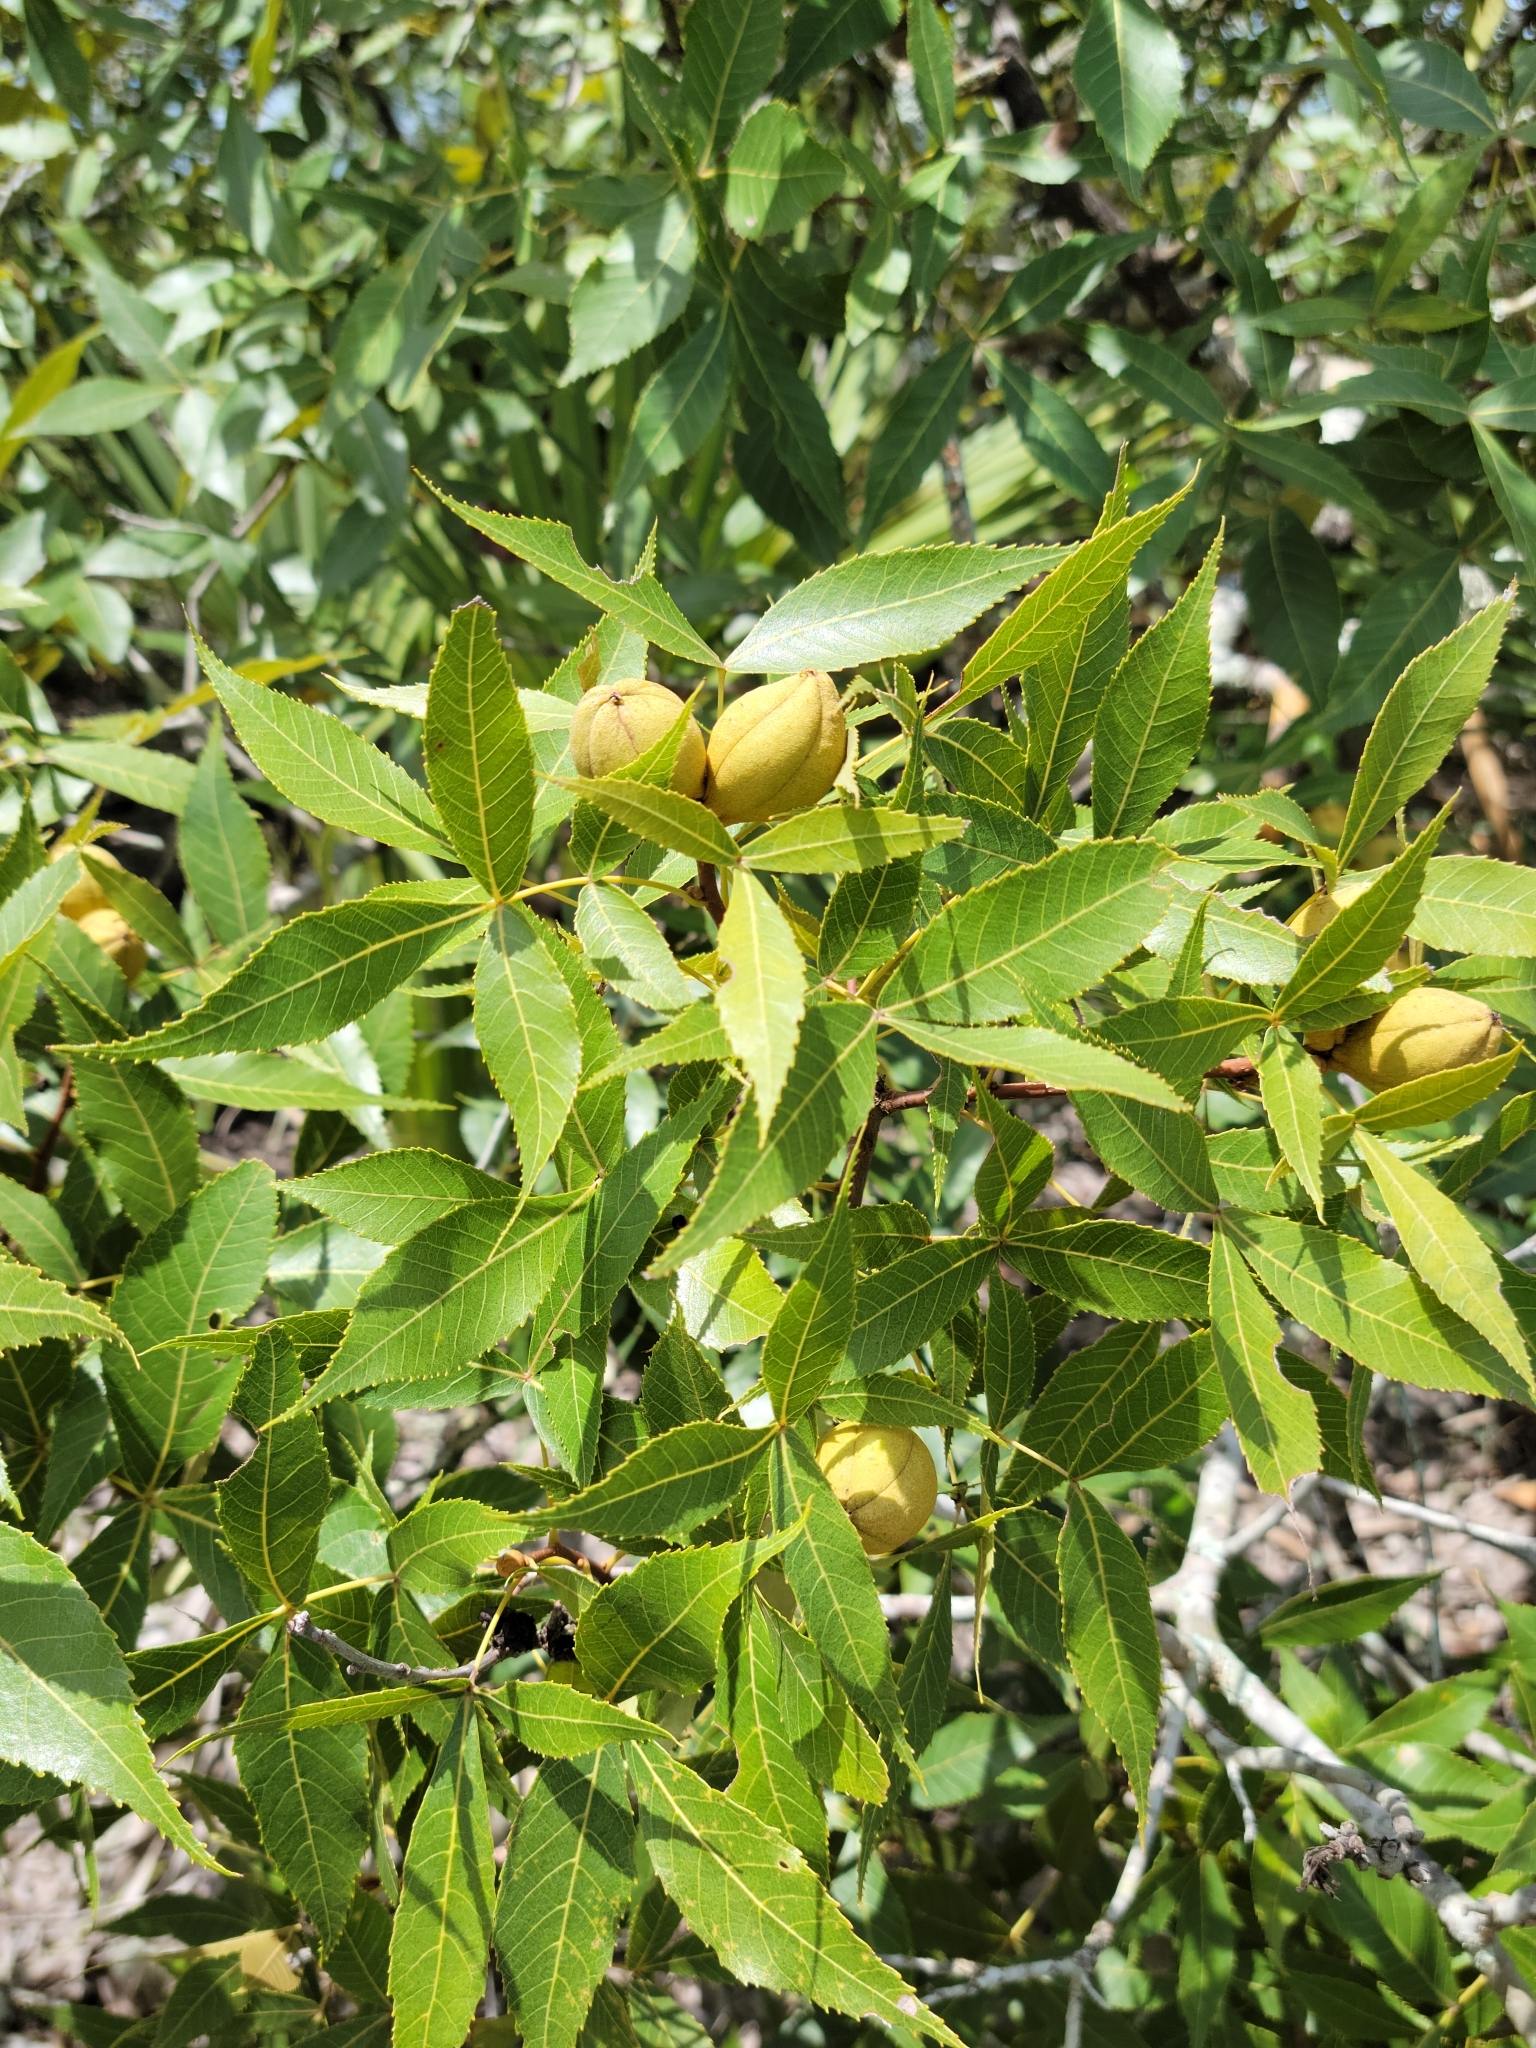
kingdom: Plantae
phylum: Tracheophyta
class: Magnoliopsida
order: Fagales
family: Juglandaceae
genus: Carya
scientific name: Carya floridana
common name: Scrub hickory
